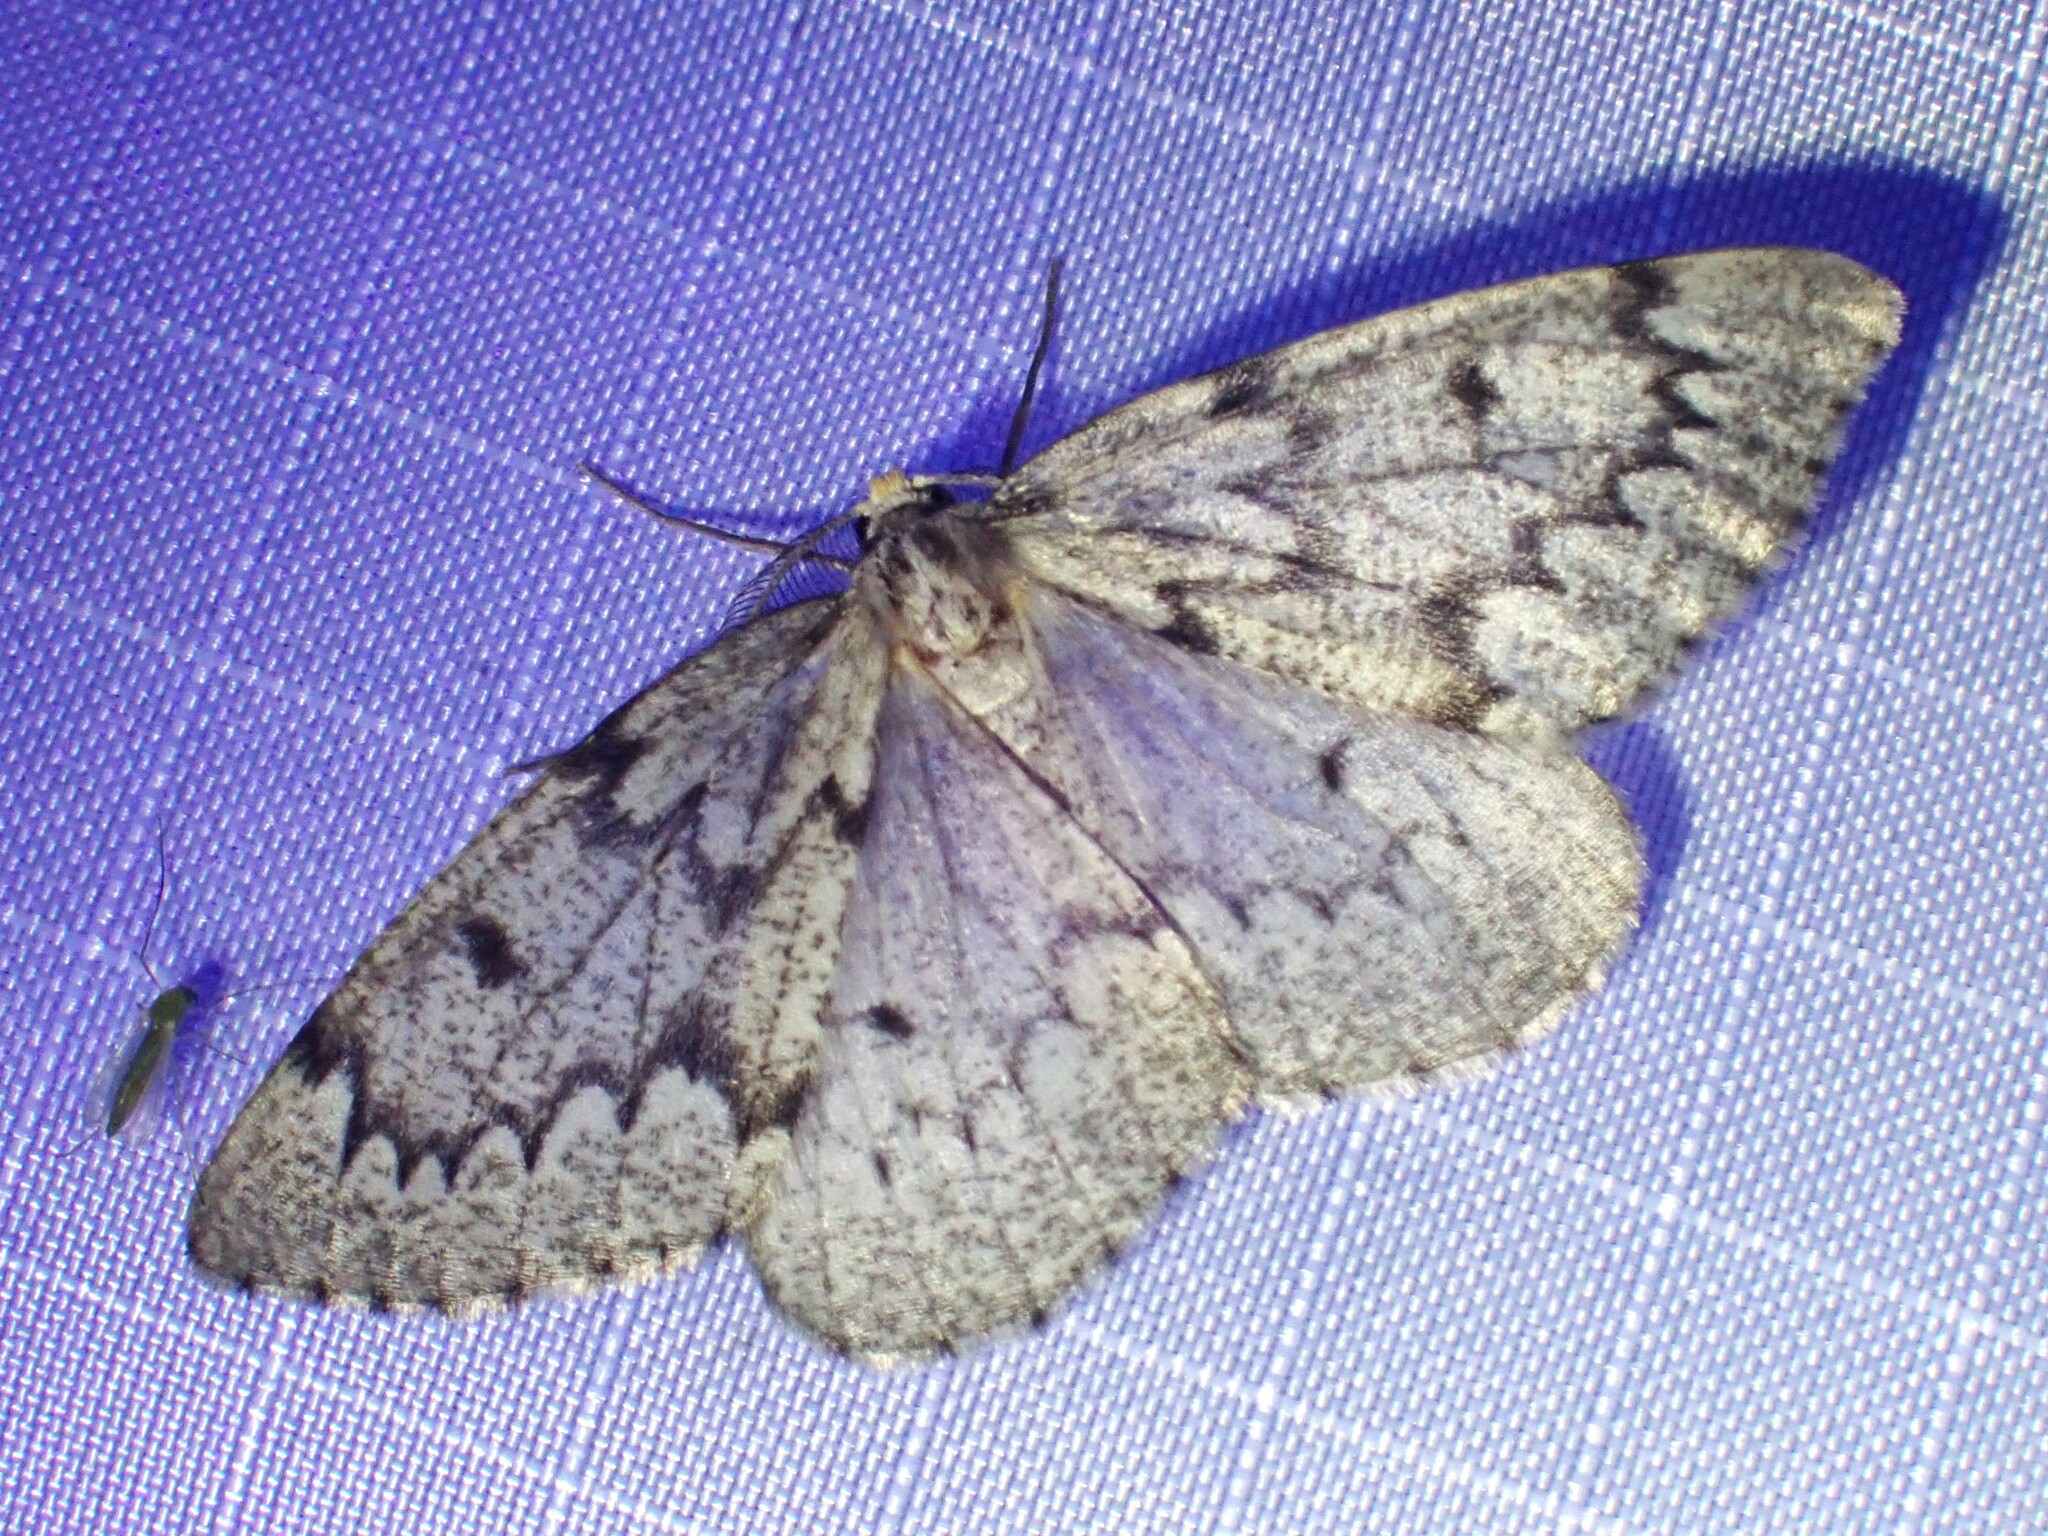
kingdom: Animalia
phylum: Arthropoda
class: Insecta
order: Lepidoptera
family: Geometridae
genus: Nepytia
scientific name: Nepytia canosaria
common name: False hemlock looper
